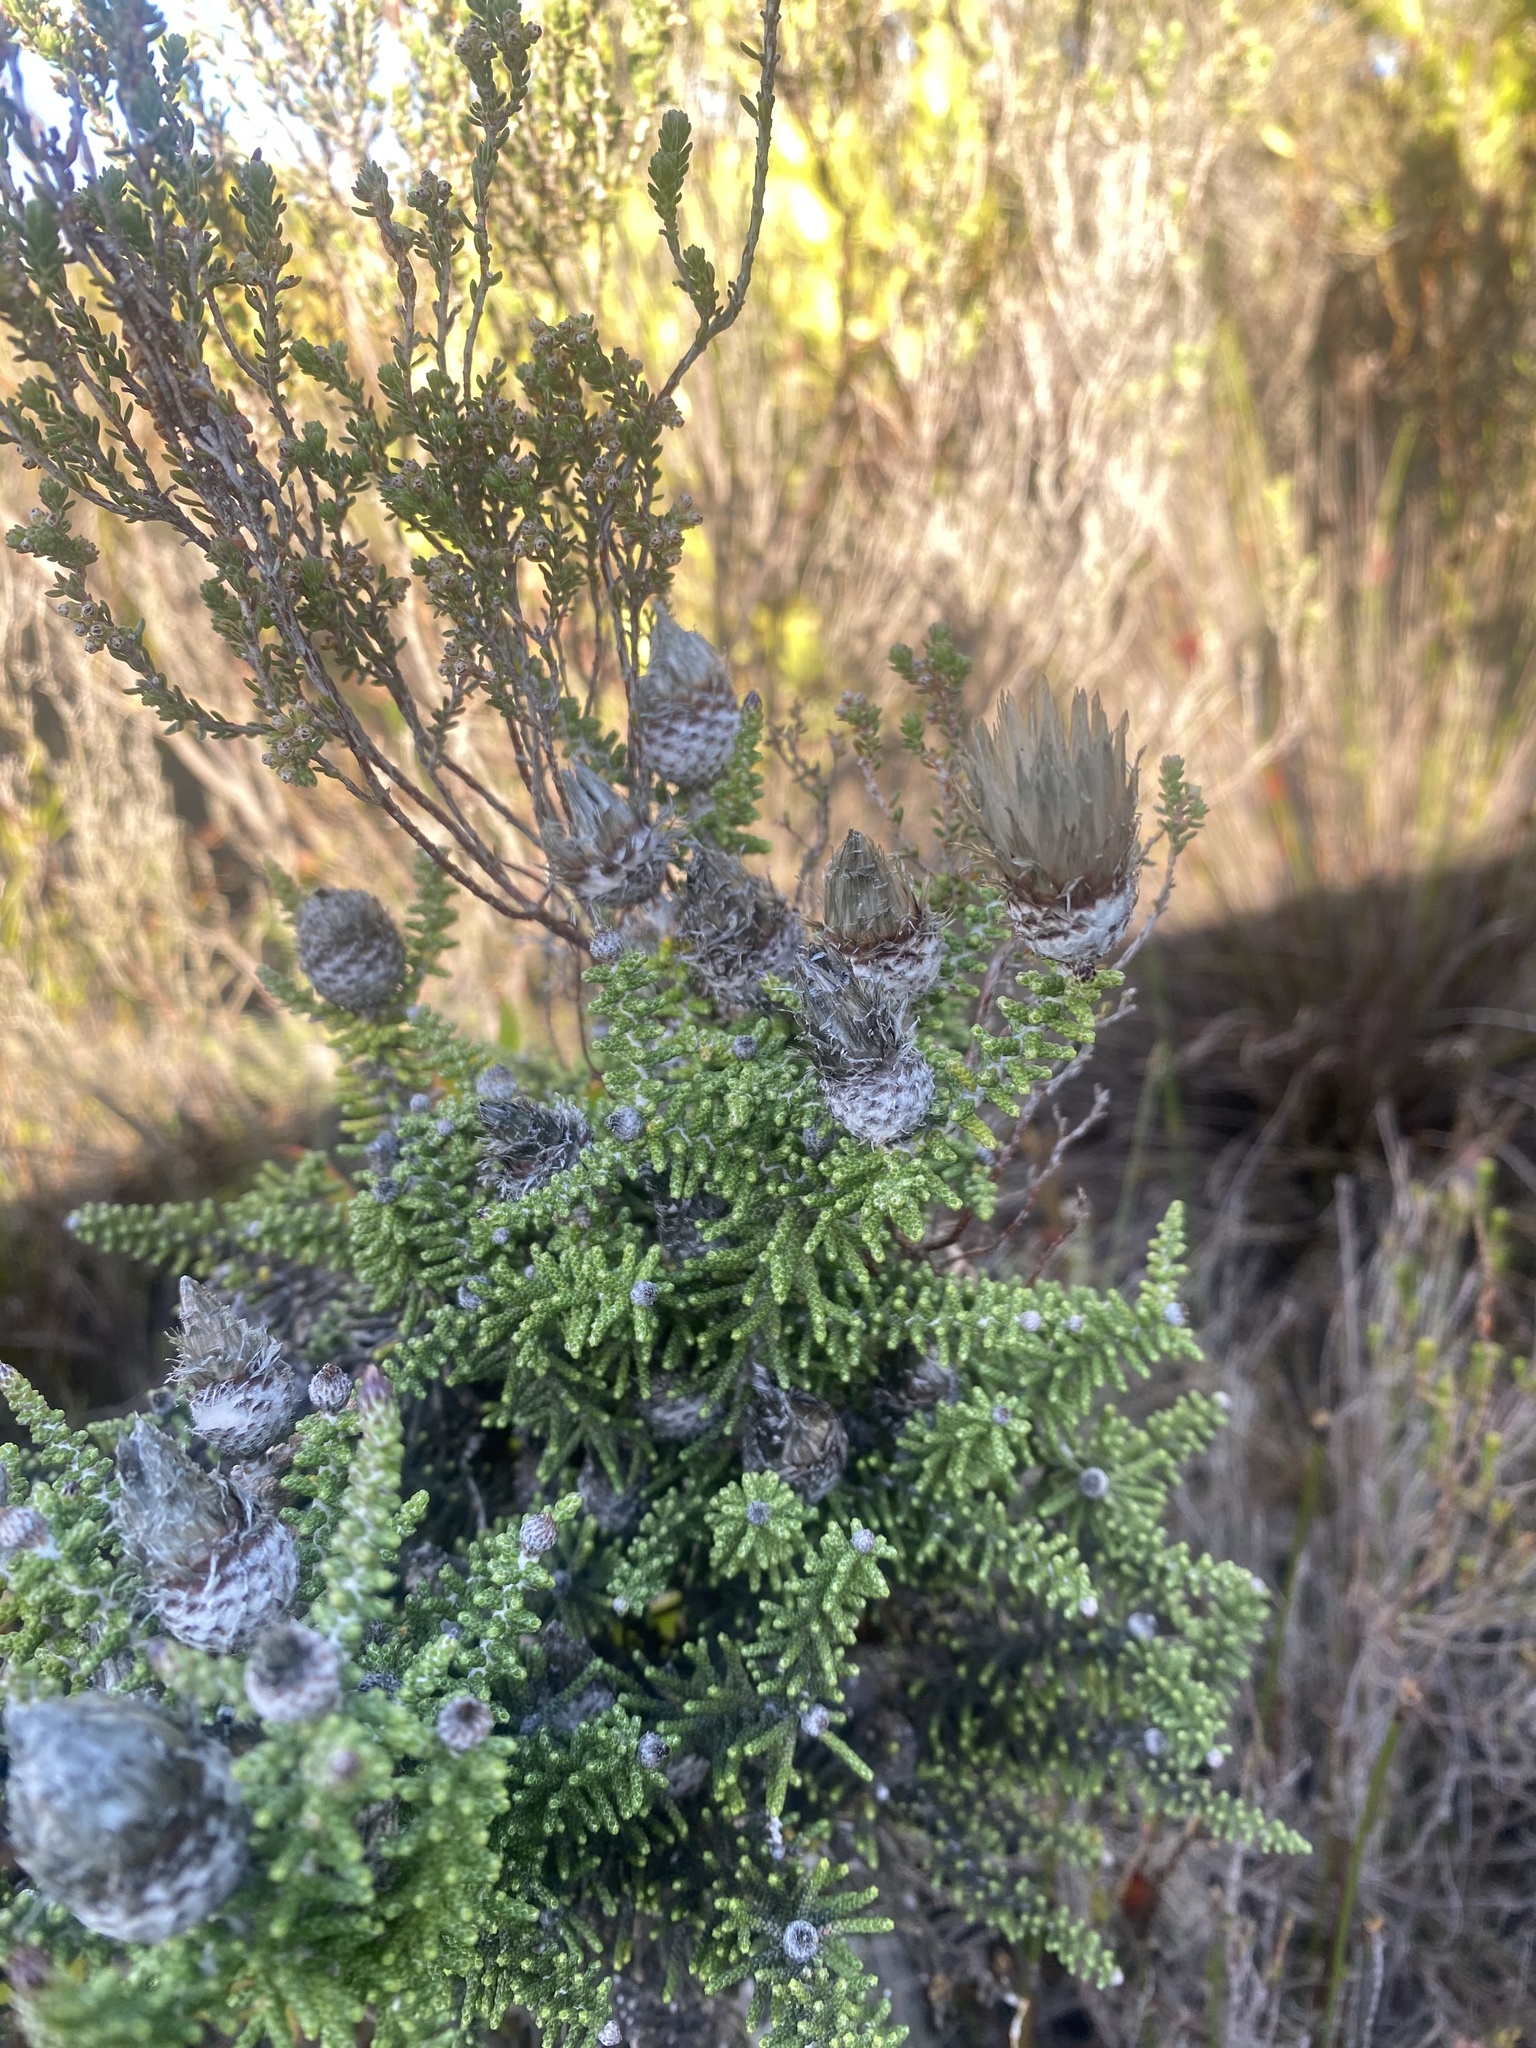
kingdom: Plantae
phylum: Tracheophyta
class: Magnoliopsida
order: Asterales
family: Asteraceae
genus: Phaenocoma
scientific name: Phaenocoma prolifera
